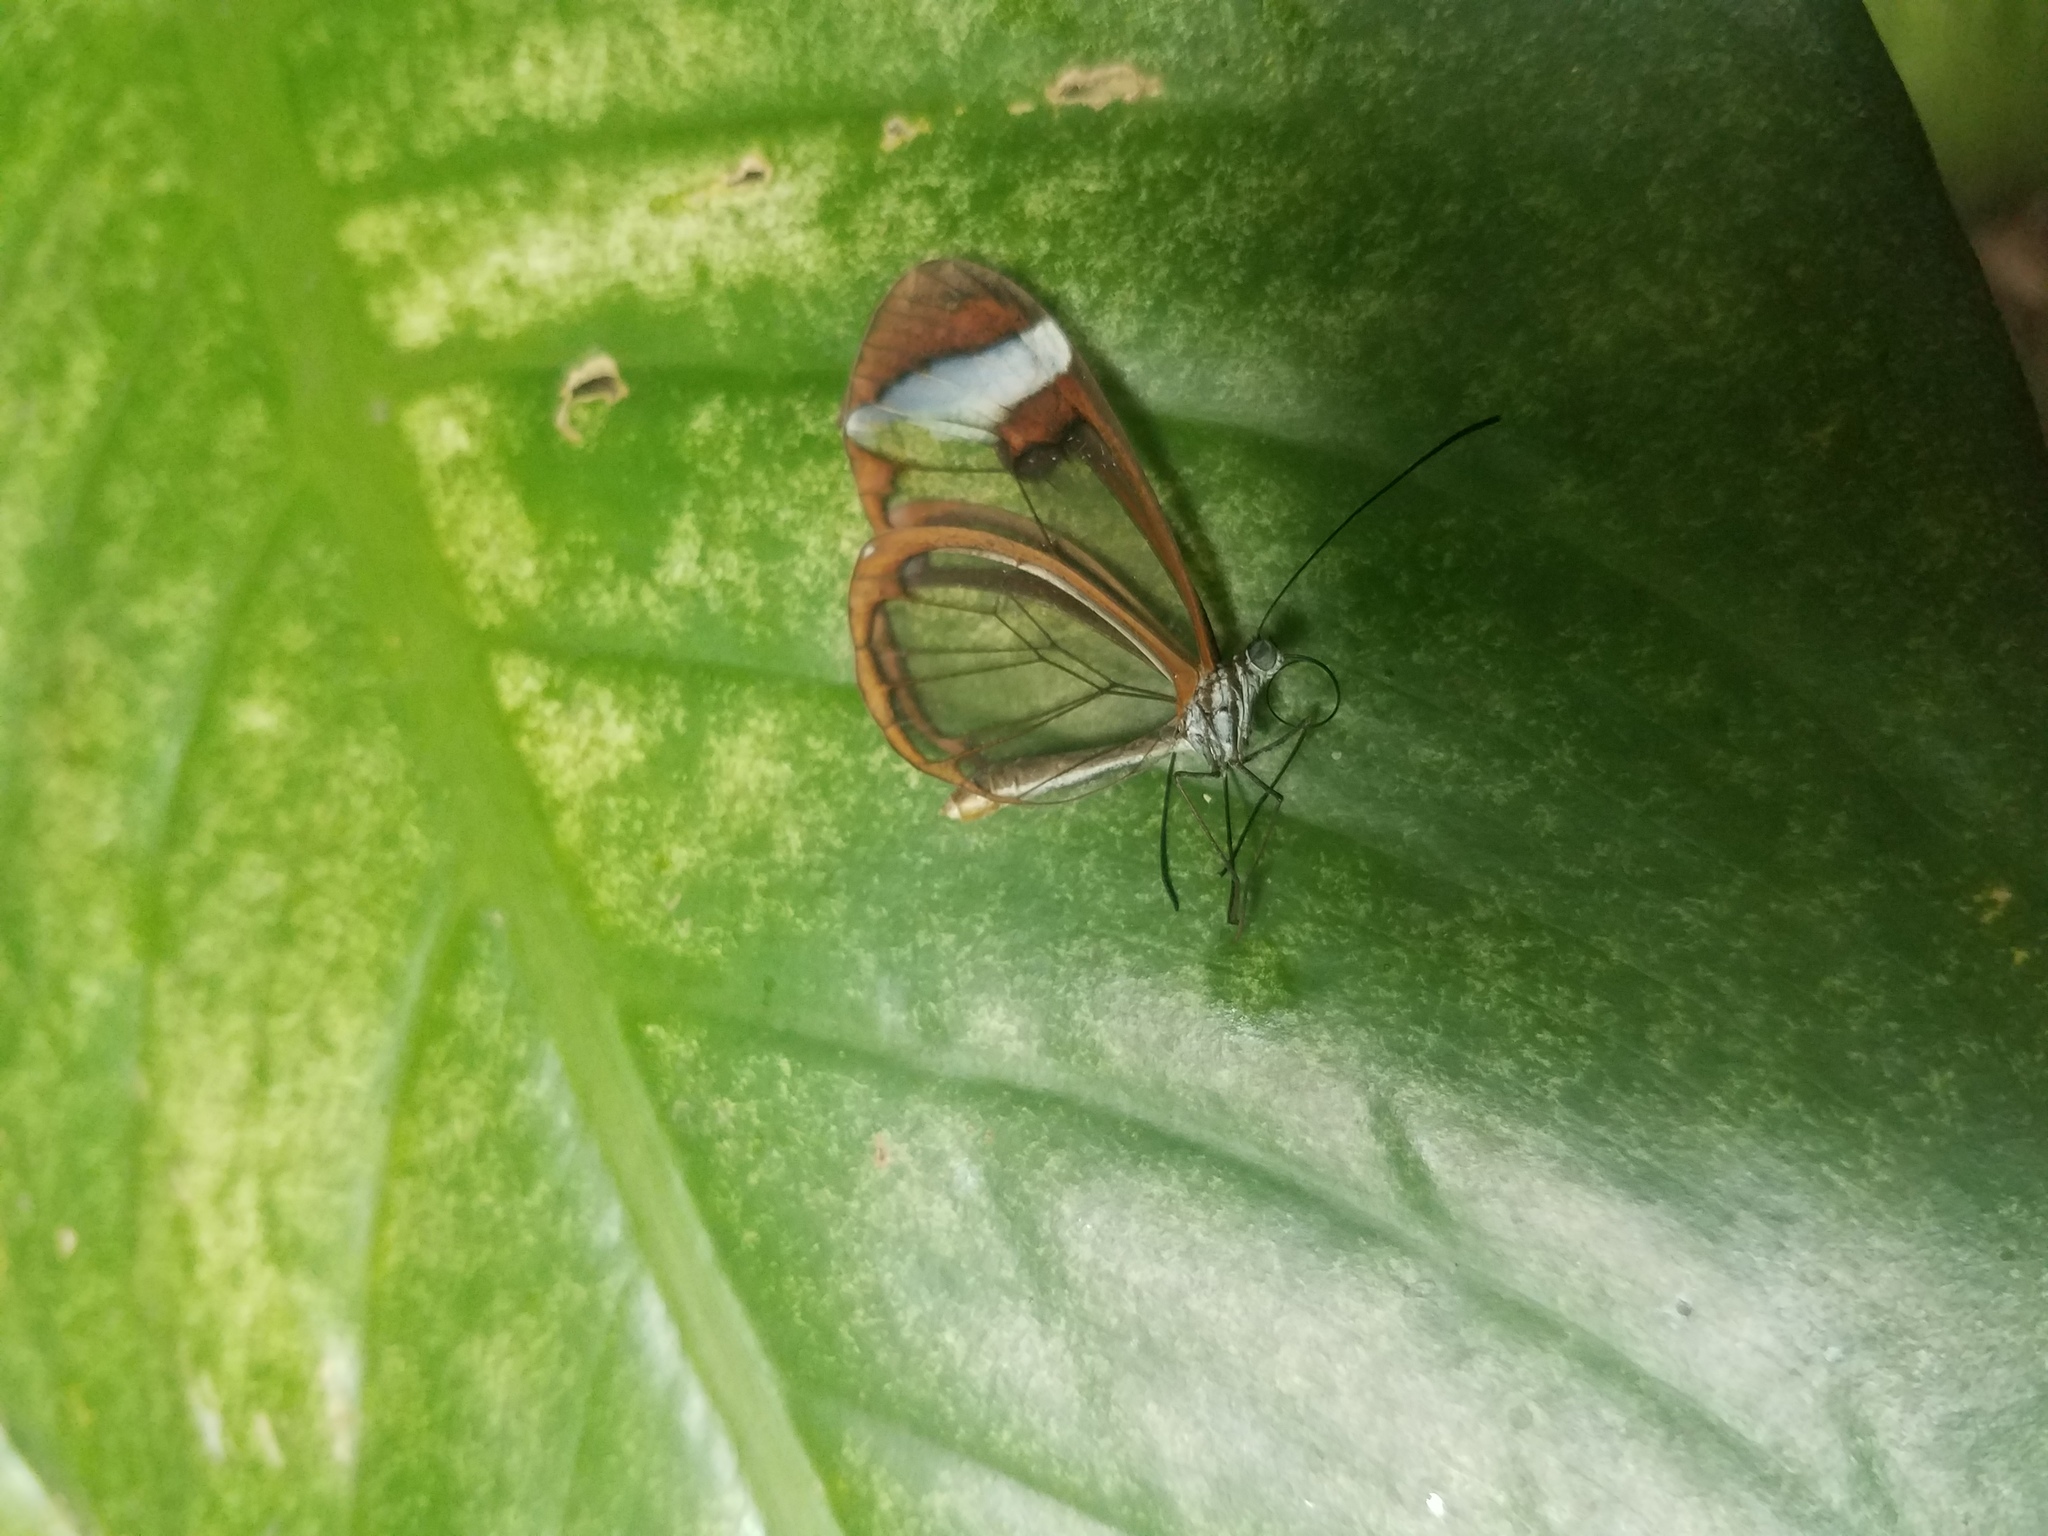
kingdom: Animalia
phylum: Arthropoda
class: Insecta
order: Lepidoptera
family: Nymphalidae
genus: Greta
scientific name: Greta morgane
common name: Thick-tipped greta
